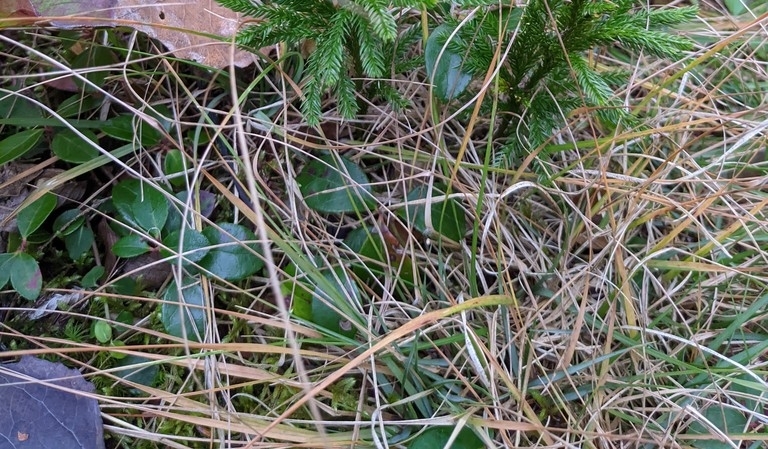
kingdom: Plantae
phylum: Tracheophyta
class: Magnoliopsida
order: Ericales
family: Ericaceae
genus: Gaultheria
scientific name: Gaultheria procumbens
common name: Checkerberry
